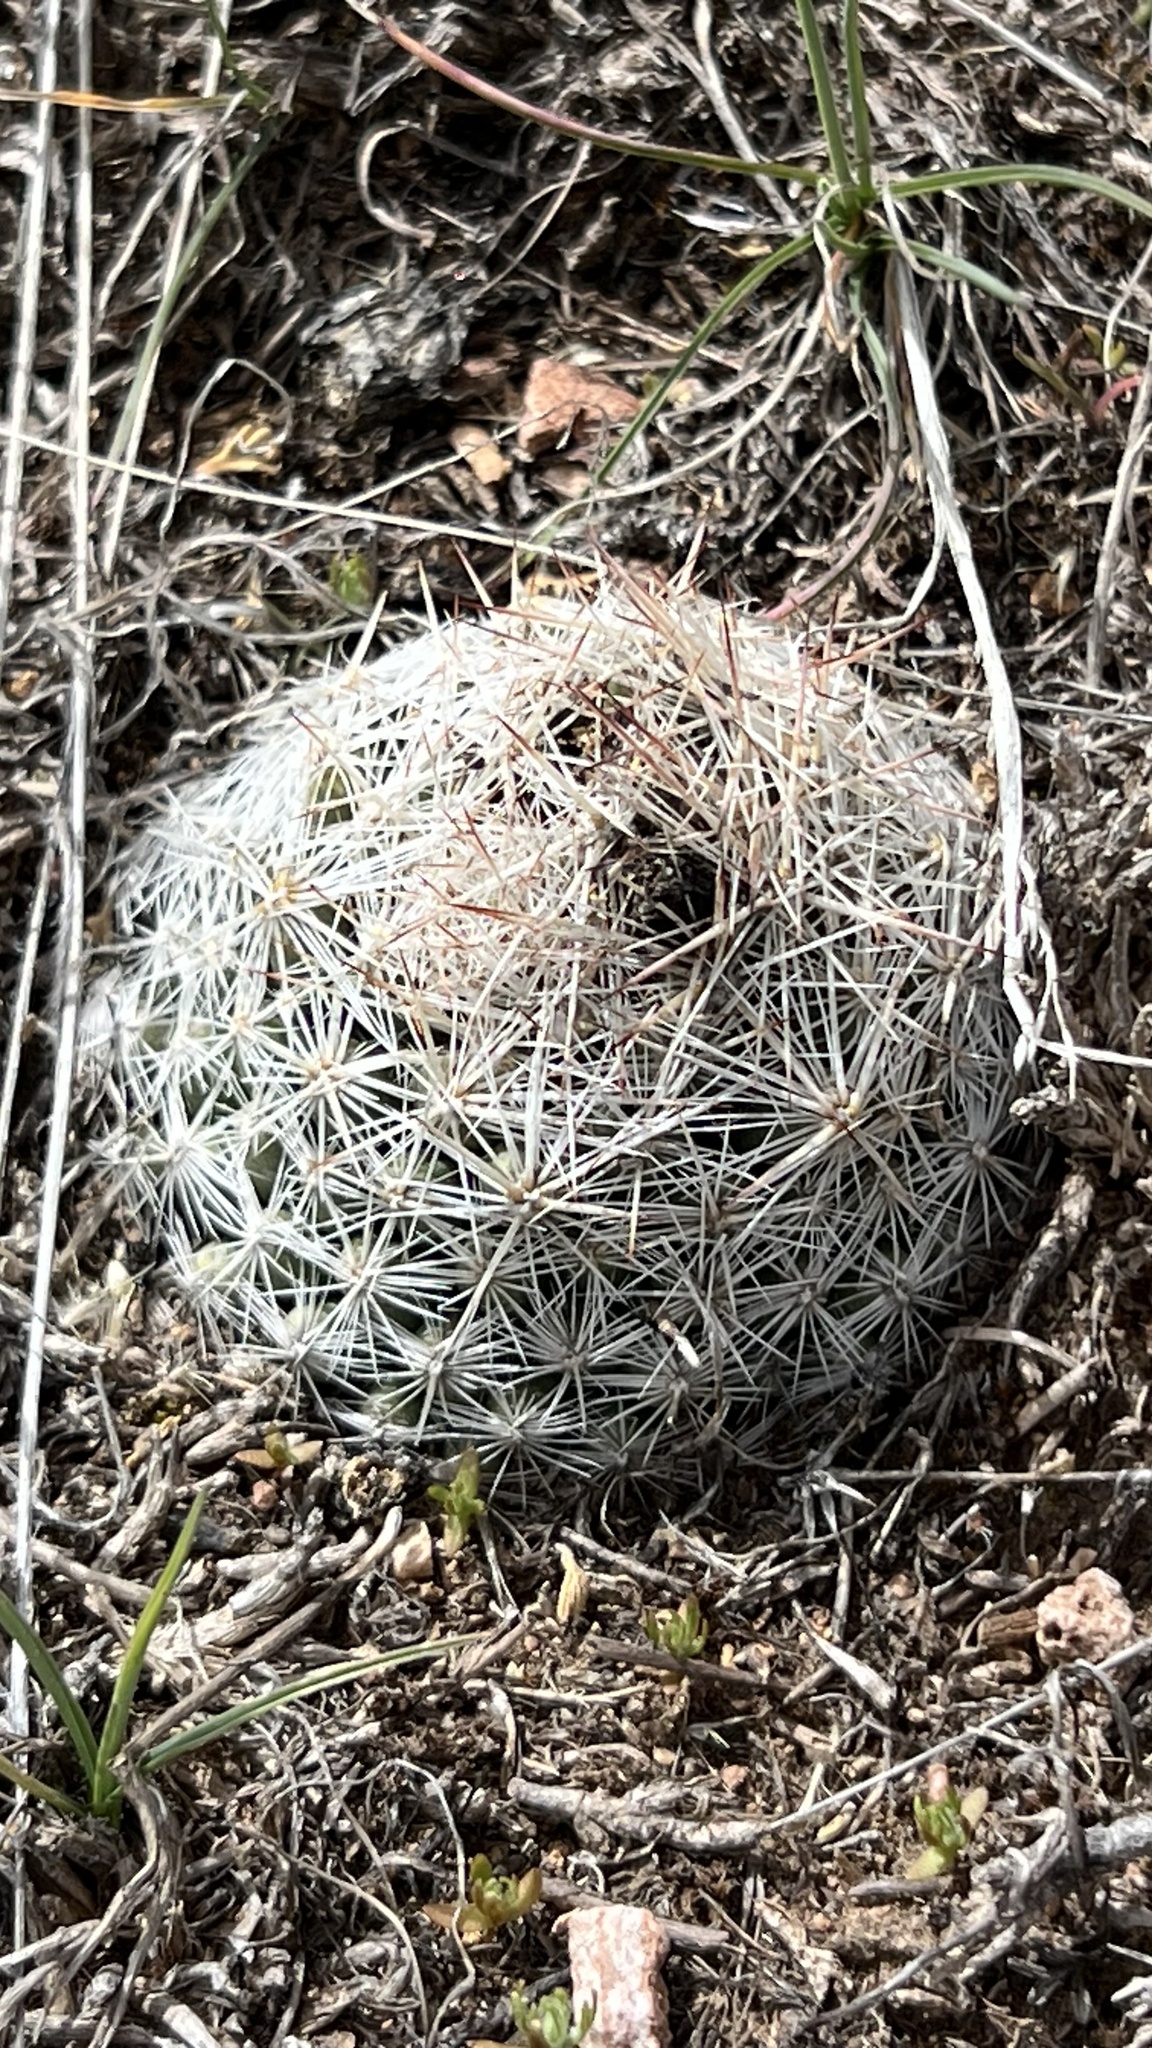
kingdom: Plantae
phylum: Tracheophyta
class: Magnoliopsida
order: Caryophyllales
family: Cactaceae
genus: Pelecyphora
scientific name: Pelecyphora vivipara
